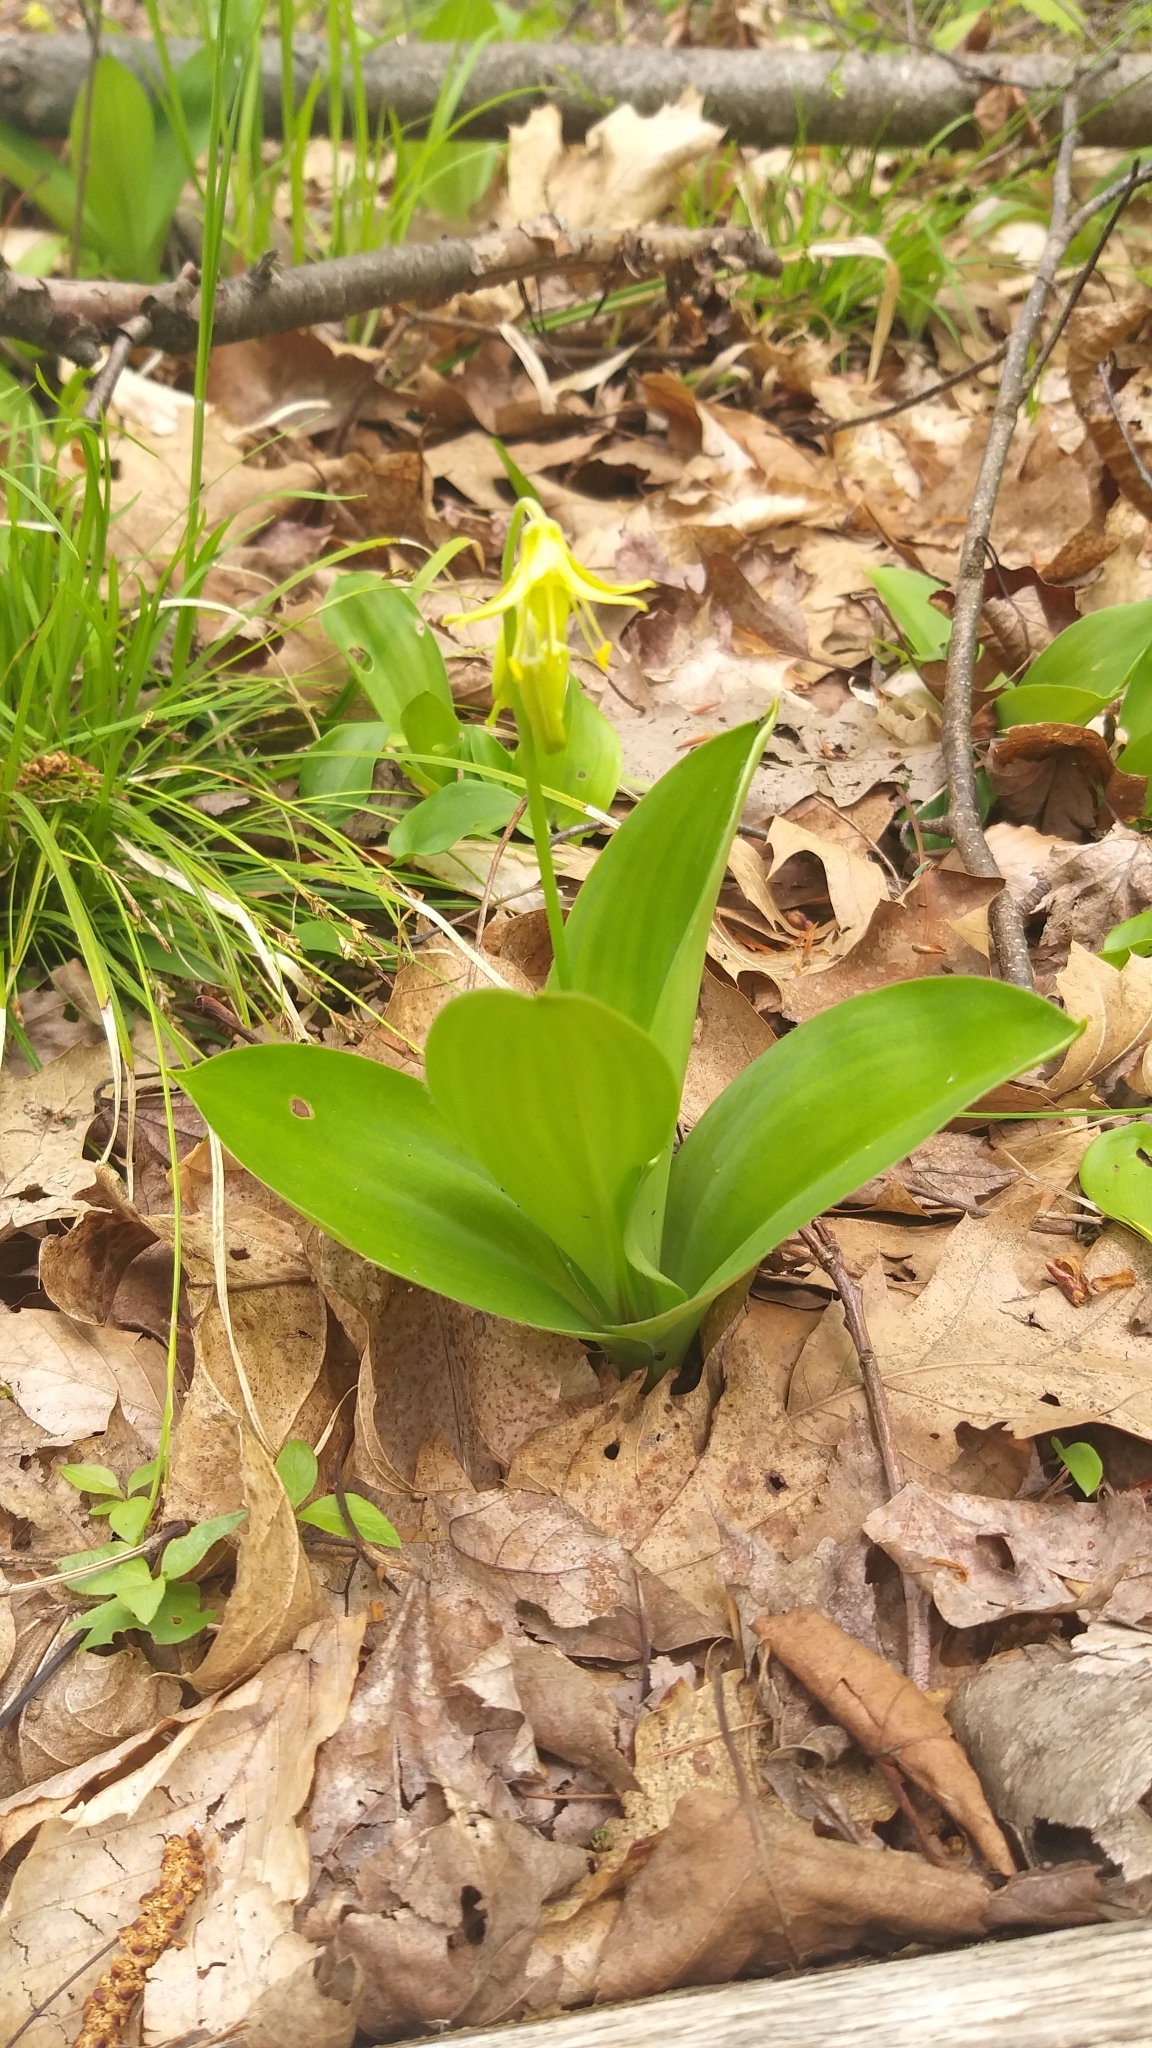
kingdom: Plantae
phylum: Tracheophyta
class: Liliopsida
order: Liliales
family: Liliaceae
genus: Clintonia
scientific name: Clintonia borealis
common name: Yellow clintonia
